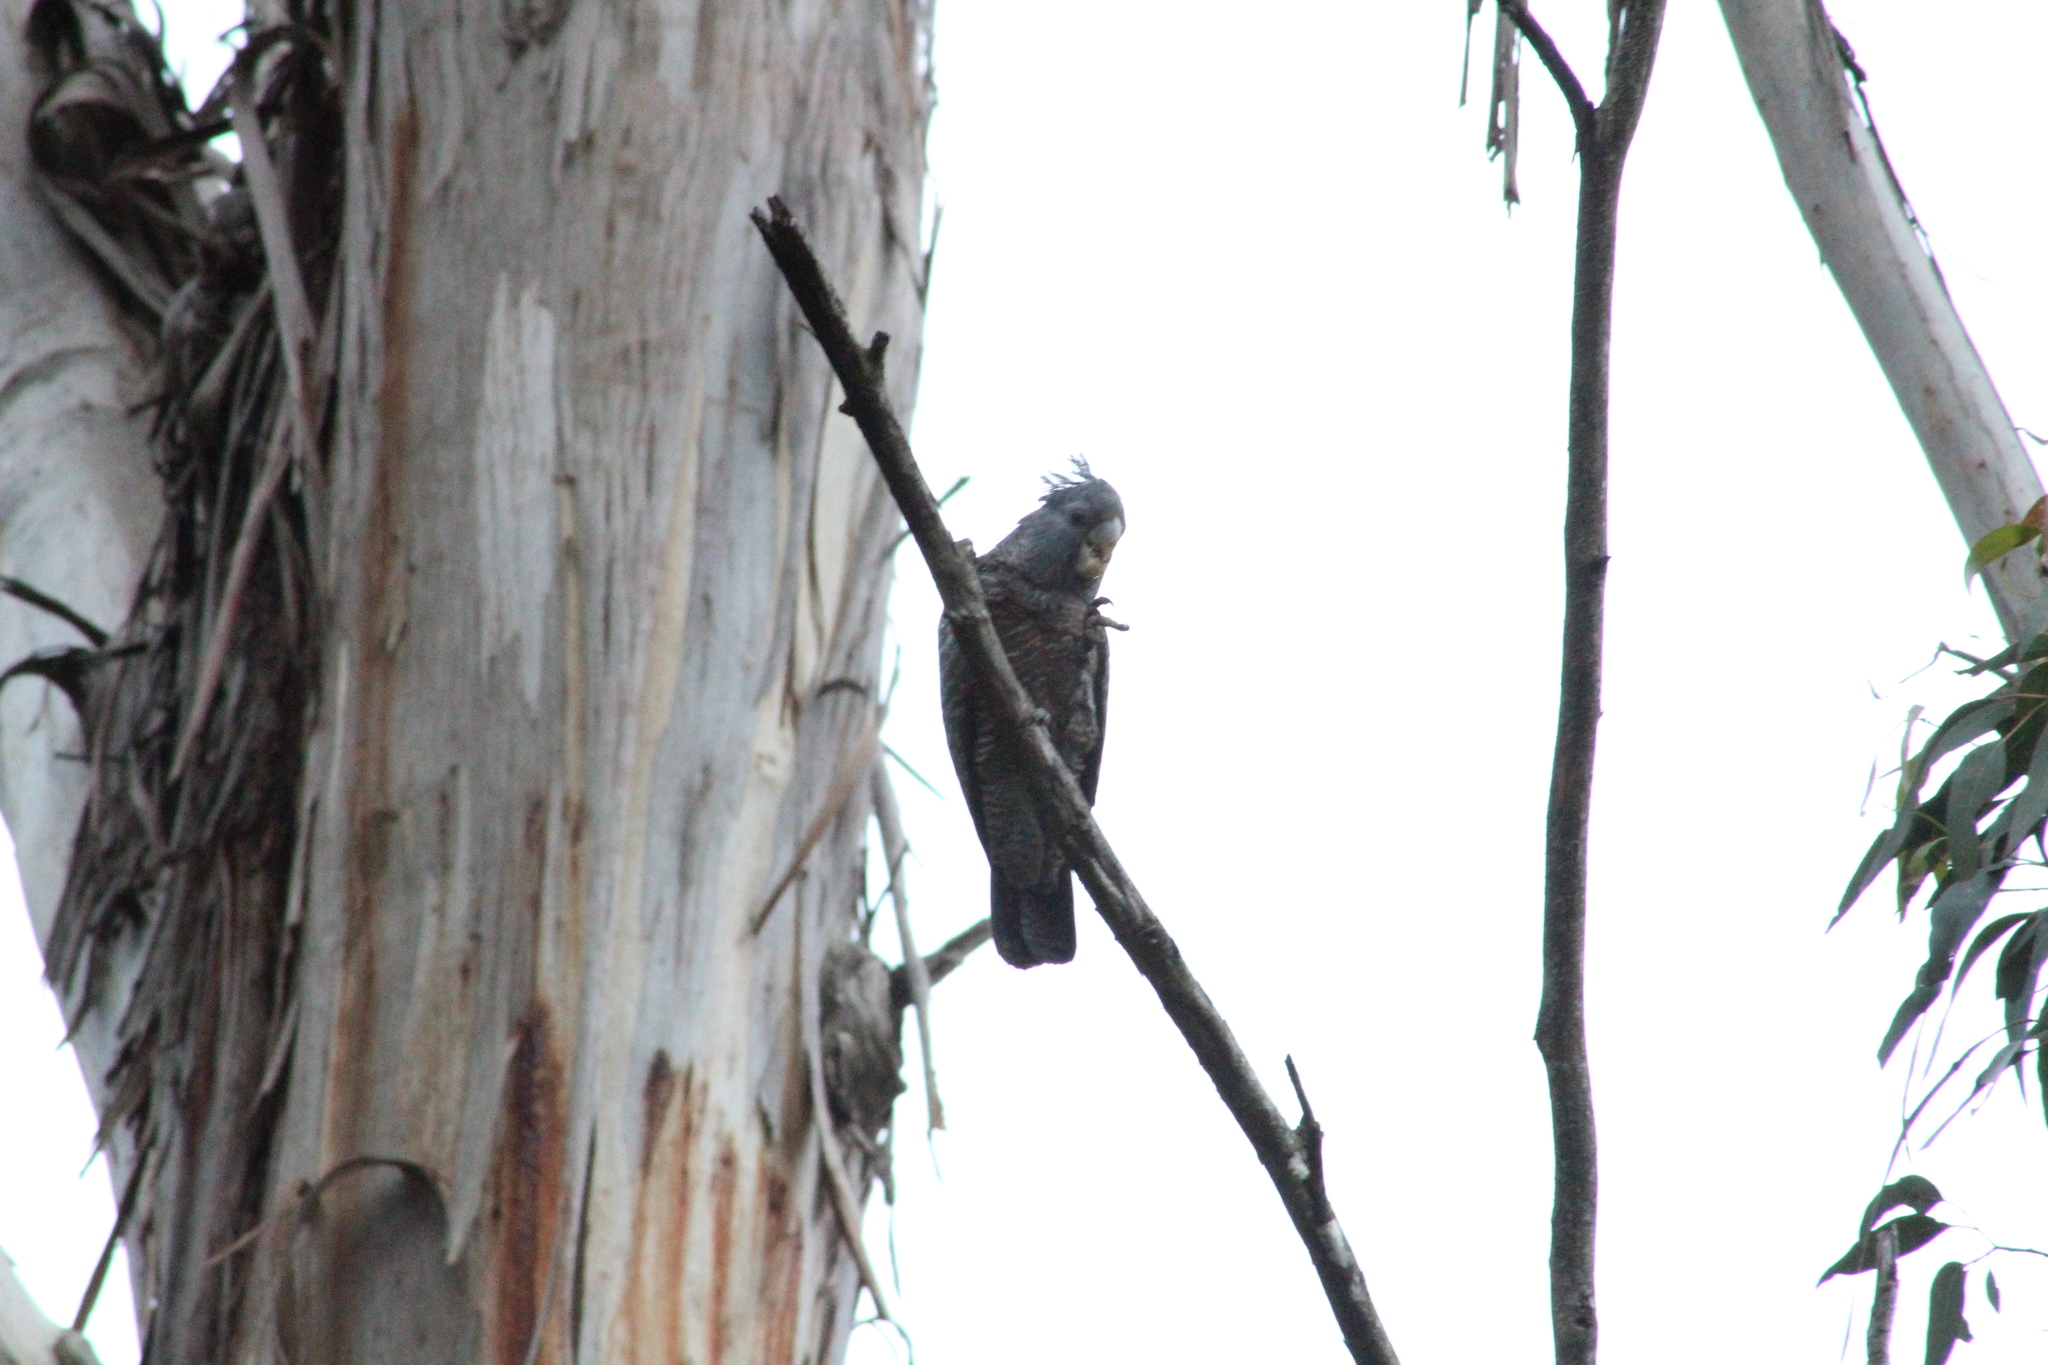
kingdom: Animalia
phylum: Chordata
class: Aves
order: Psittaciformes
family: Psittacidae
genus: Callocephalon
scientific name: Callocephalon fimbriatum
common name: Gang-gang cockatoo
